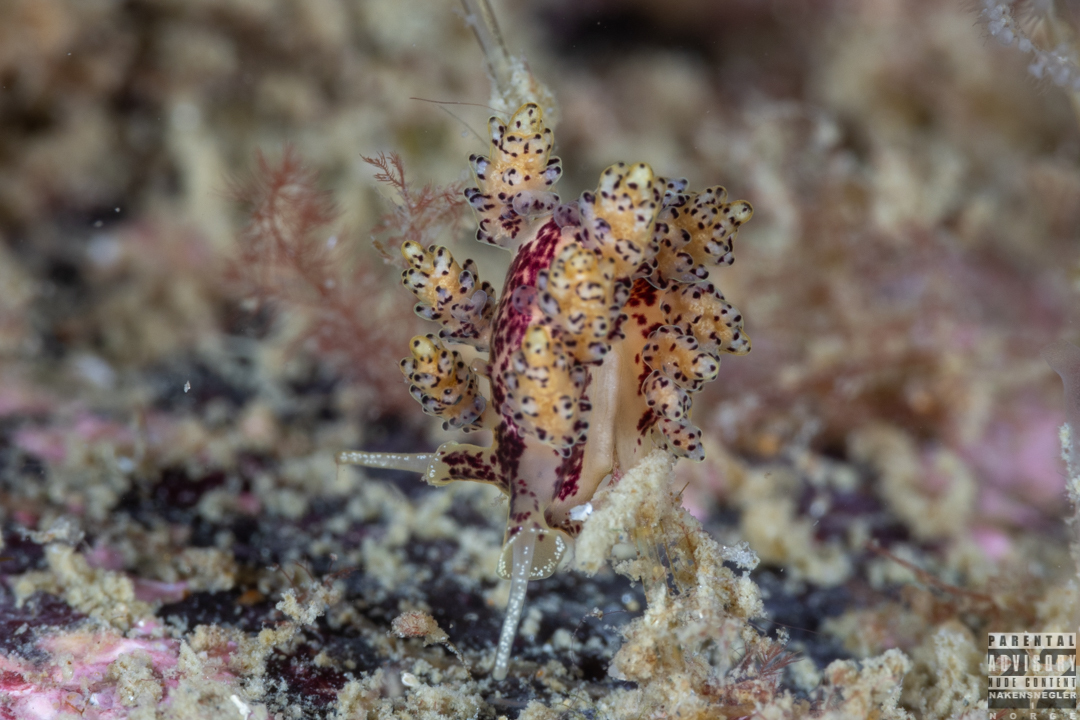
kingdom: Animalia
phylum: Mollusca
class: Gastropoda
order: Nudibranchia
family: Dotidae
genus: Doto
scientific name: Doto dunnei
